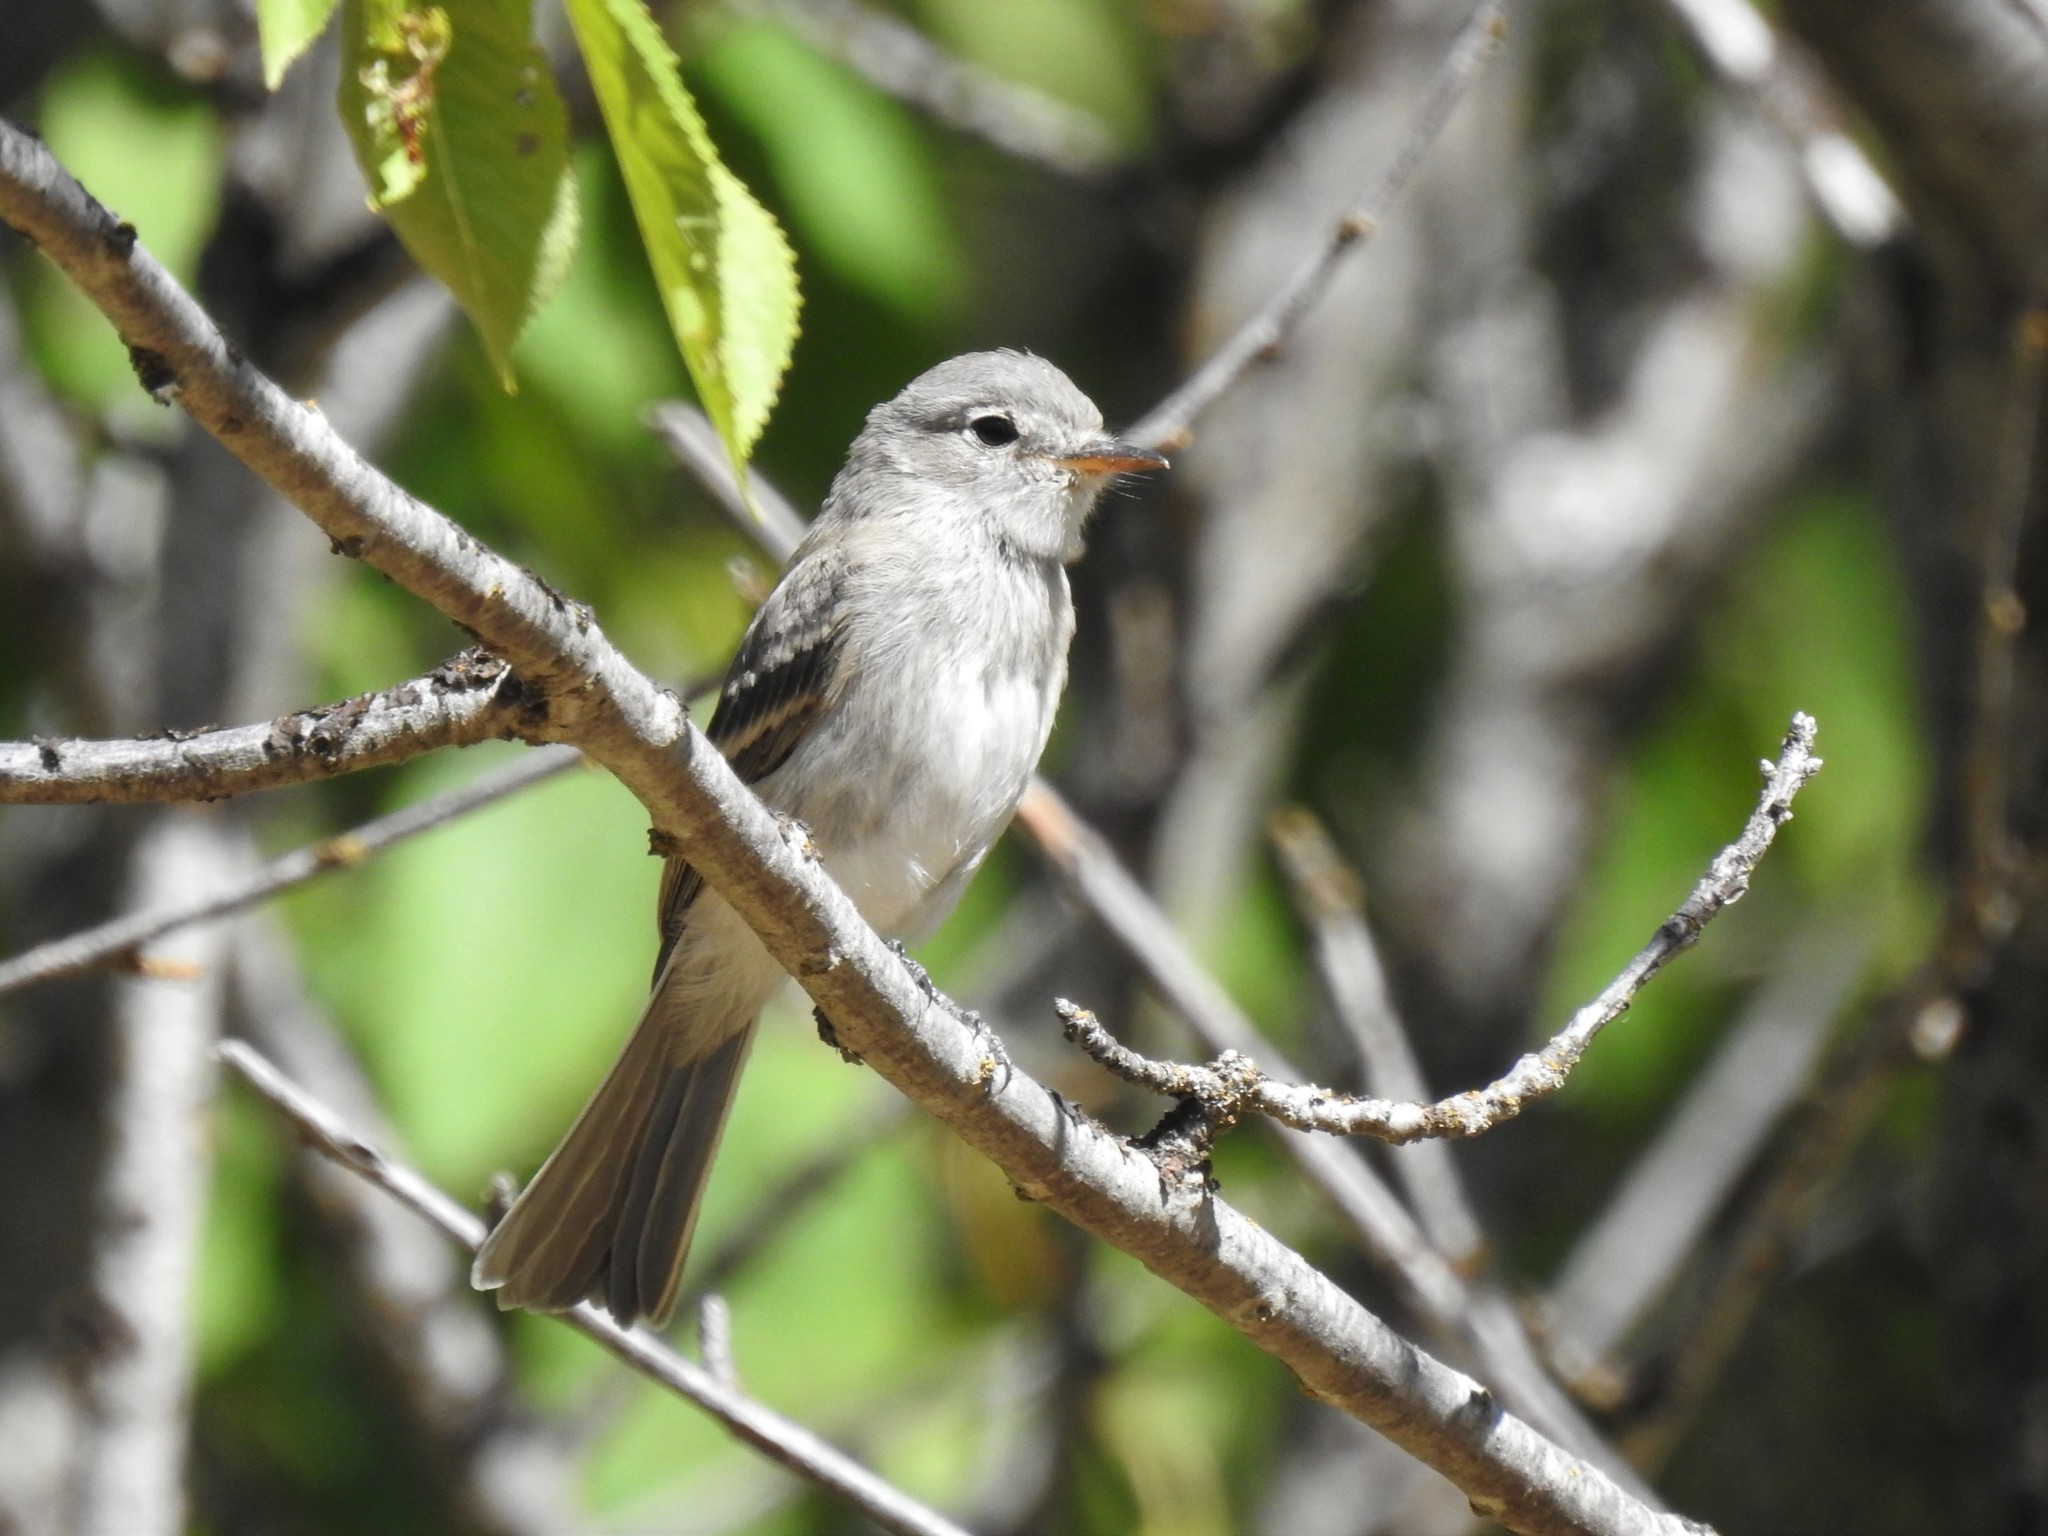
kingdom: Animalia
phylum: Chordata
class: Aves
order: Passeriformes
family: Tyrannidae
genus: Empidonax
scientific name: Empidonax wrightii
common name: Gray flycatcher
